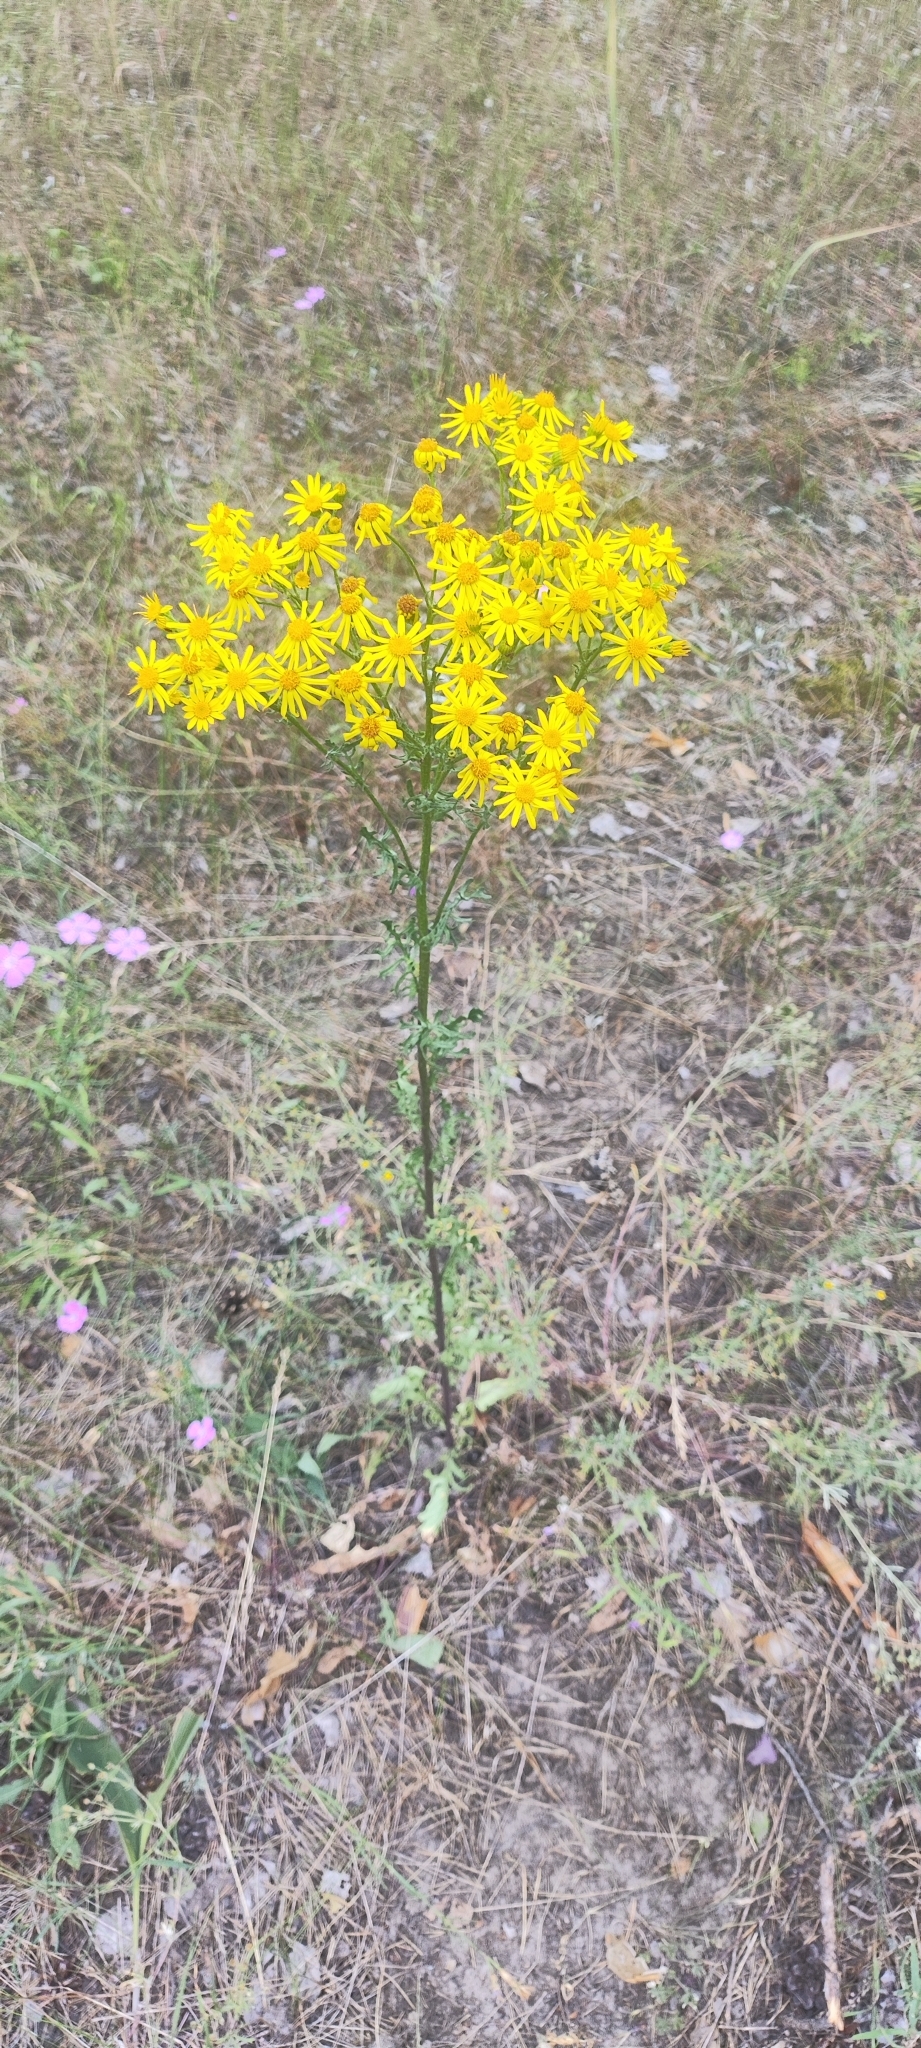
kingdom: Plantae
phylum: Tracheophyta
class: Magnoliopsida
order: Asterales
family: Asteraceae
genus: Jacobaea
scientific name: Jacobaea vulgaris
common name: Stinking willie
